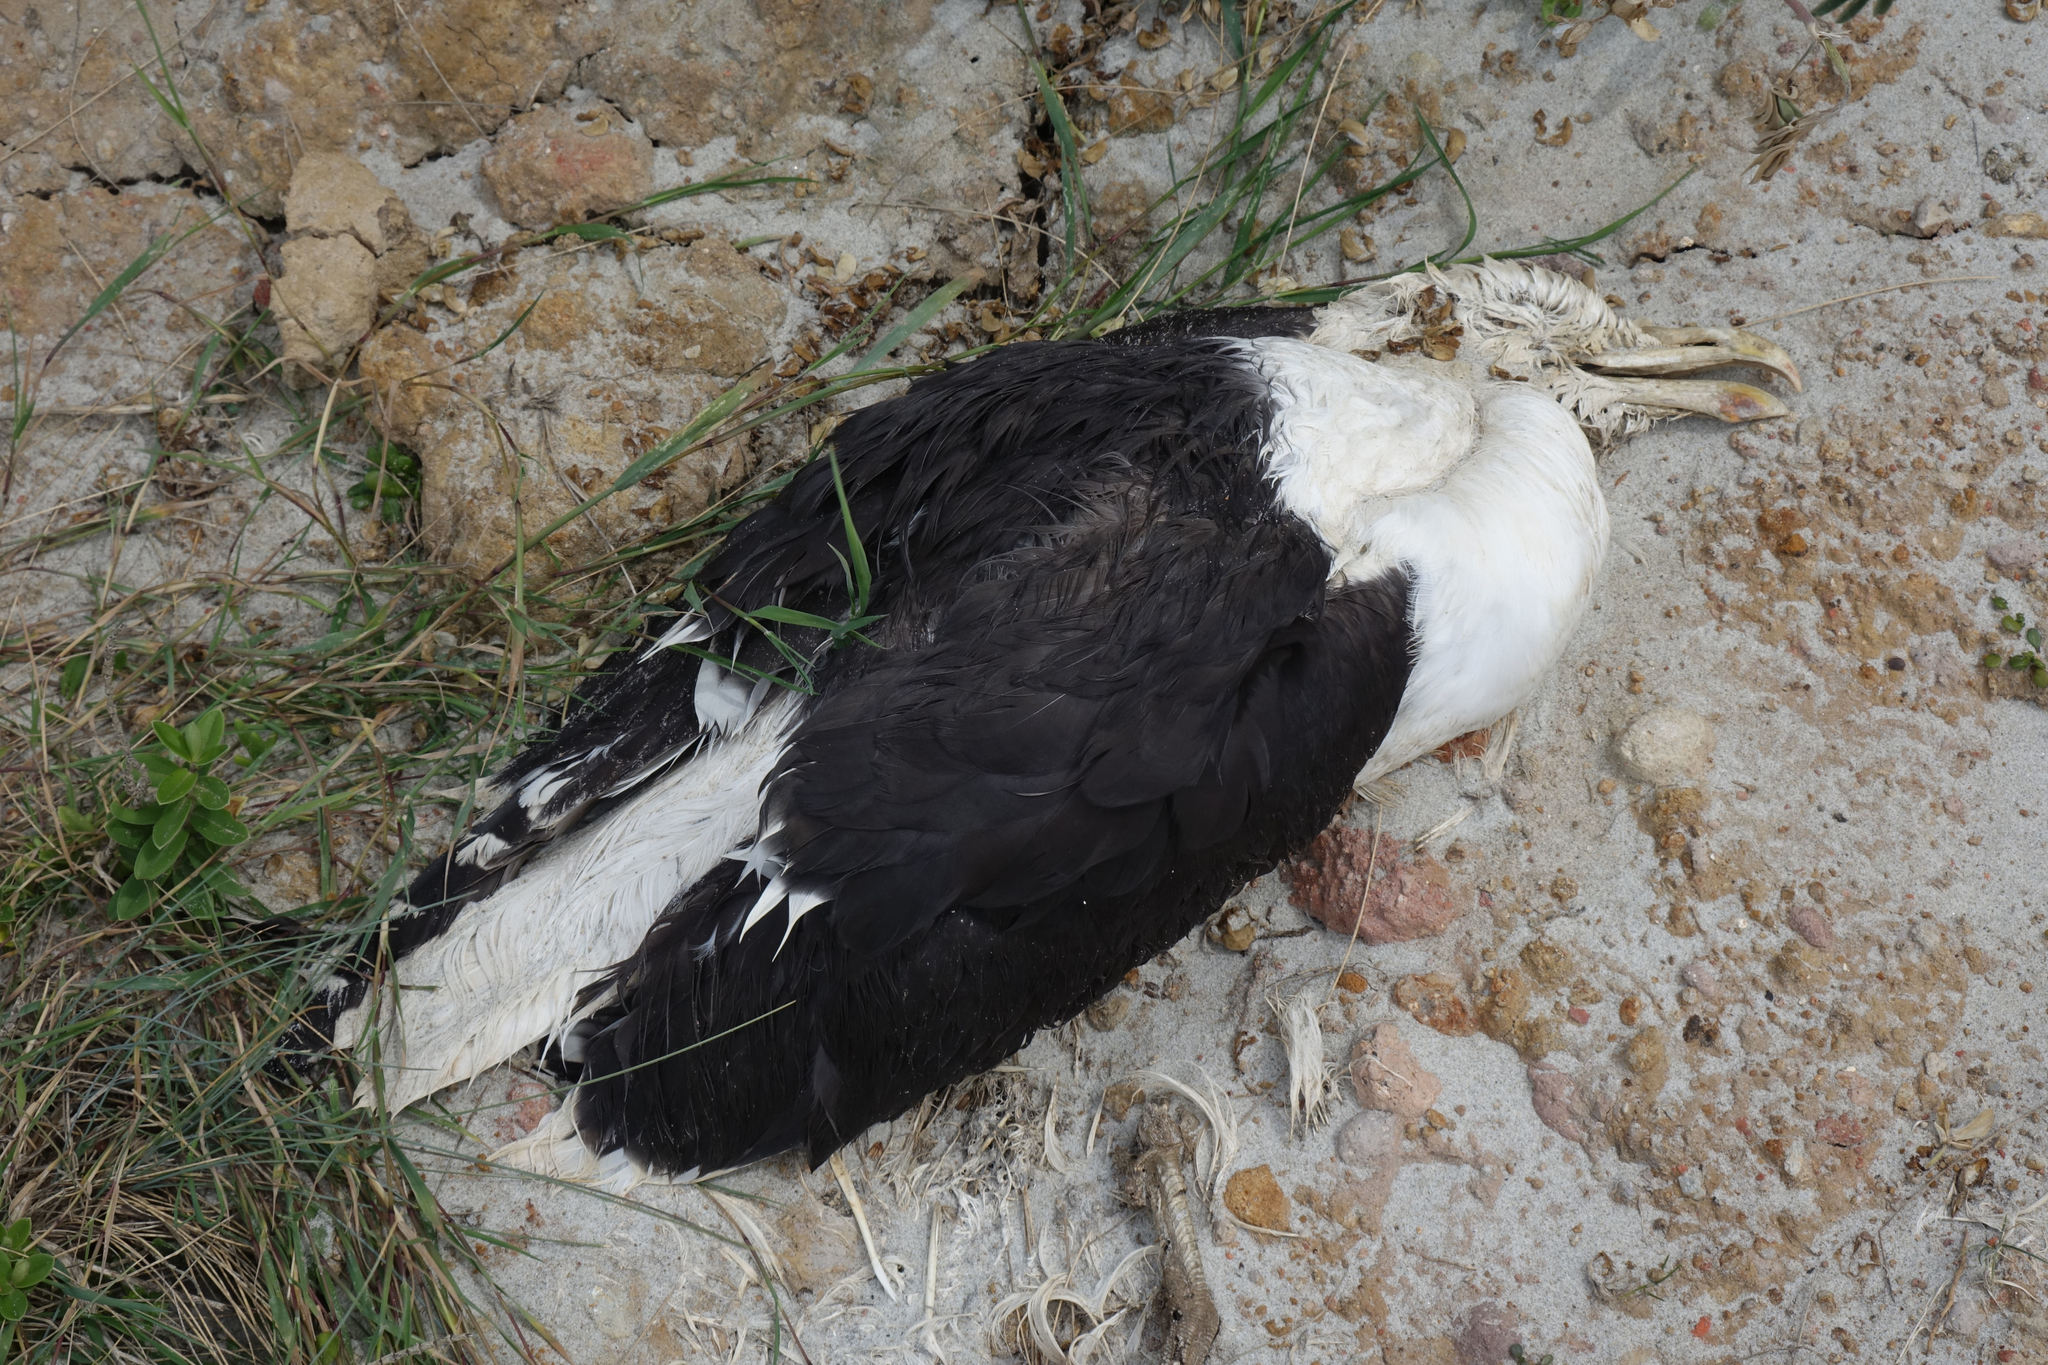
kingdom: Animalia
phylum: Chordata
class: Aves
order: Charadriiformes
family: Laridae
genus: Larus
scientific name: Larus dominicanus
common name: Kelp gull
